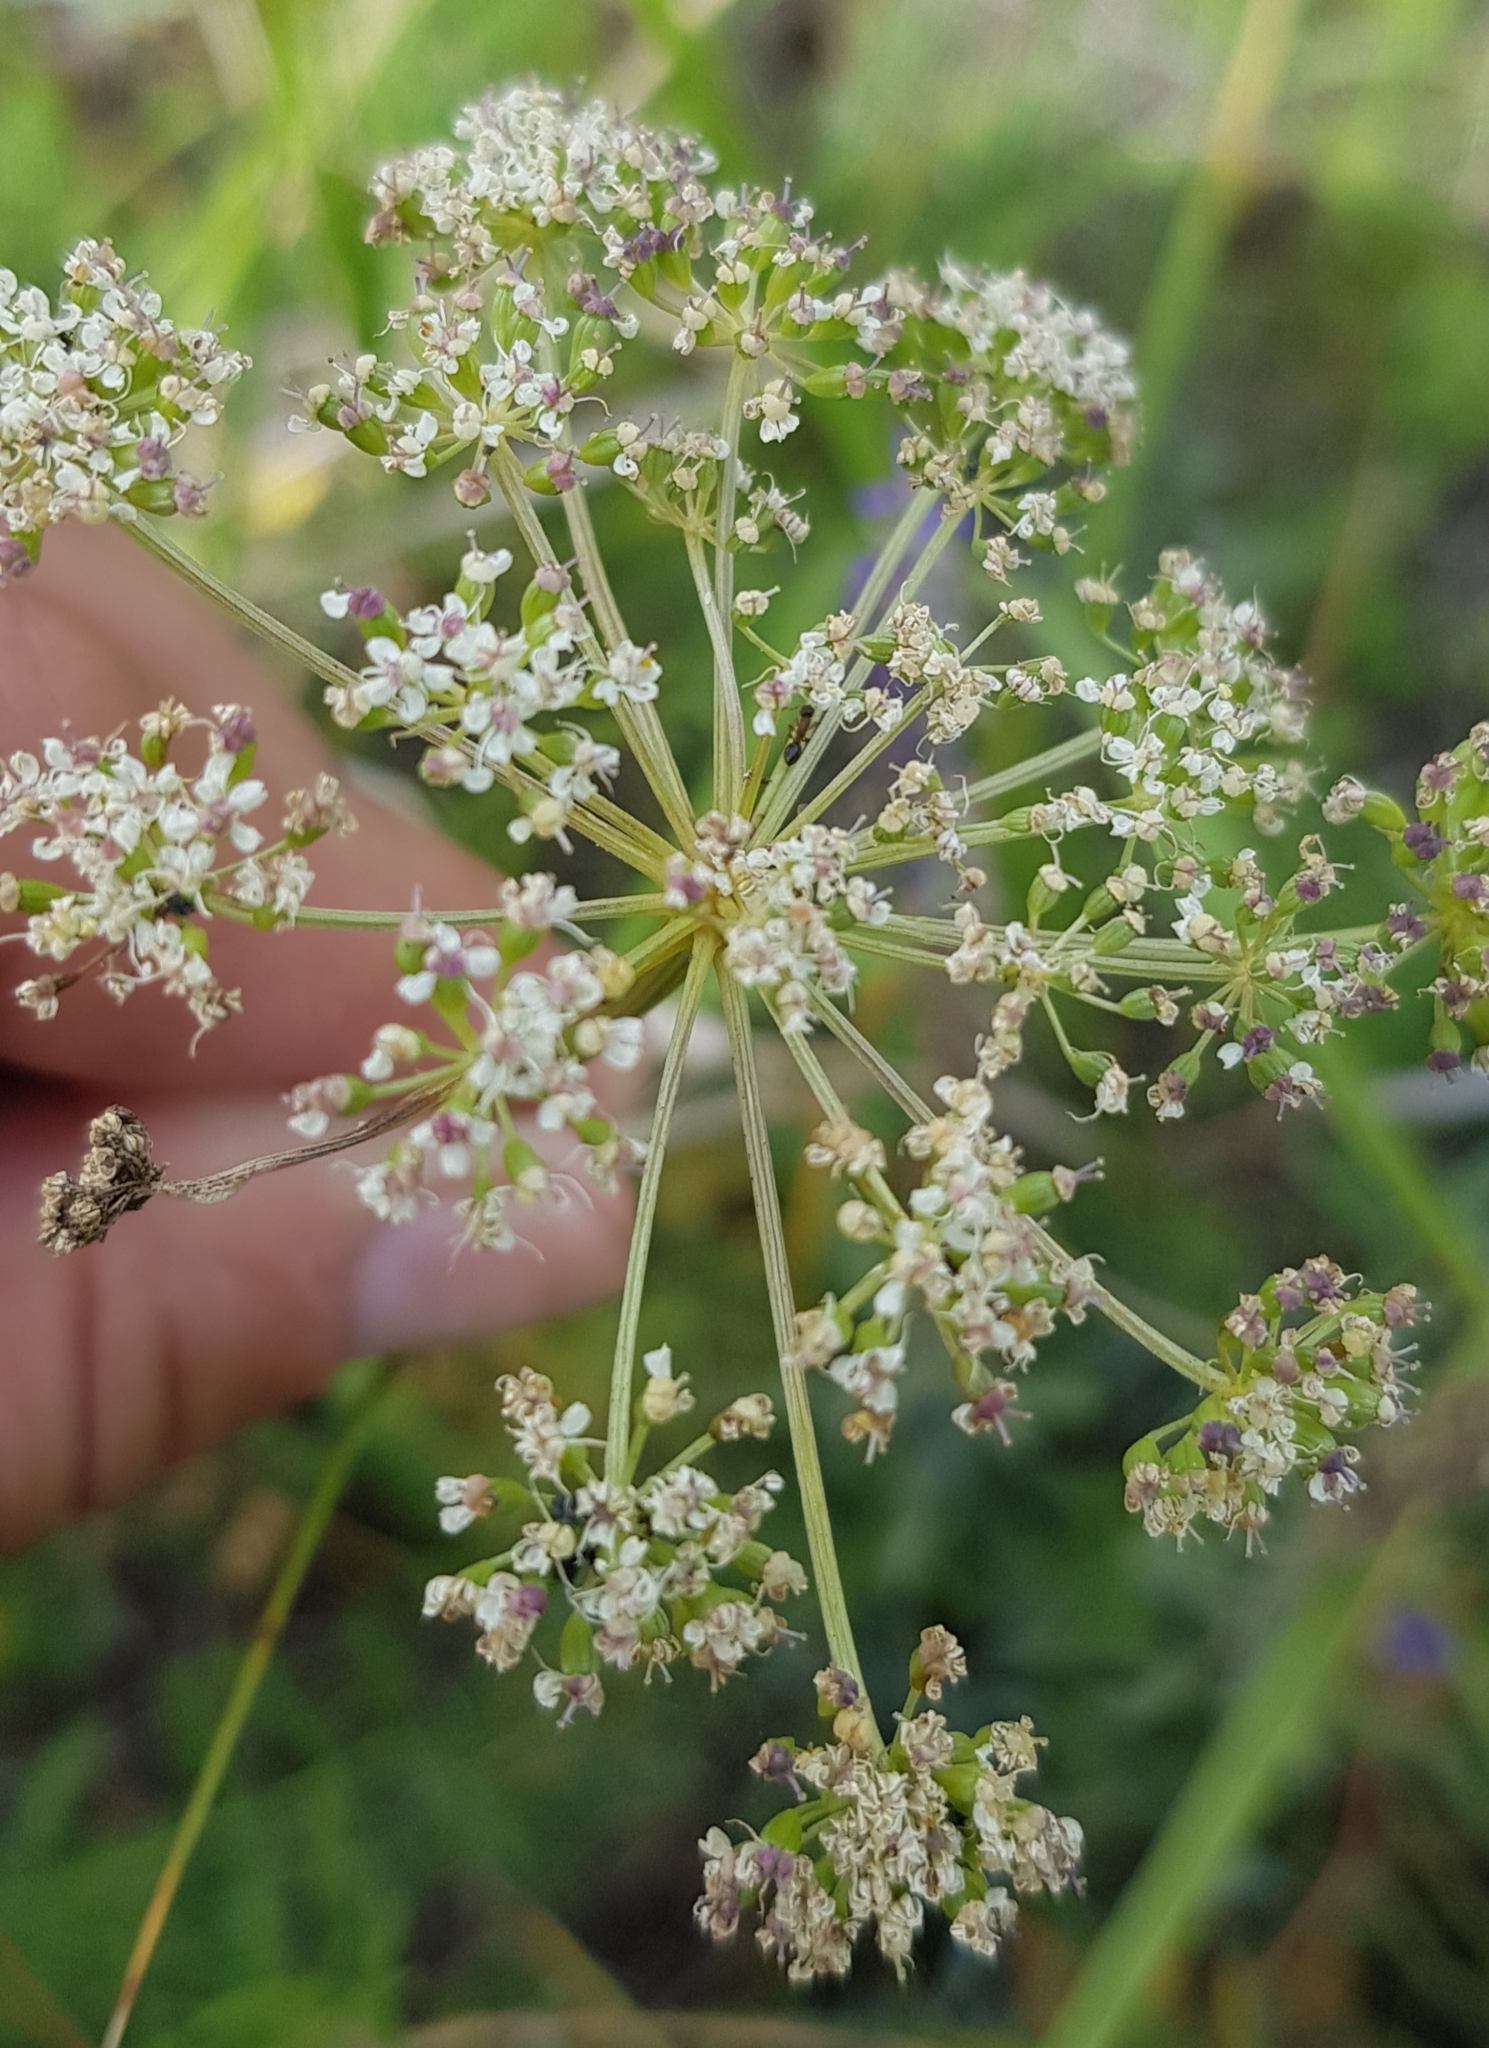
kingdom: Plantae
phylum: Tracheophyta
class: Magnoliopsida
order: Apiales
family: Apiaceae
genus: Carum
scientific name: Carum carvi
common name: Caraway
